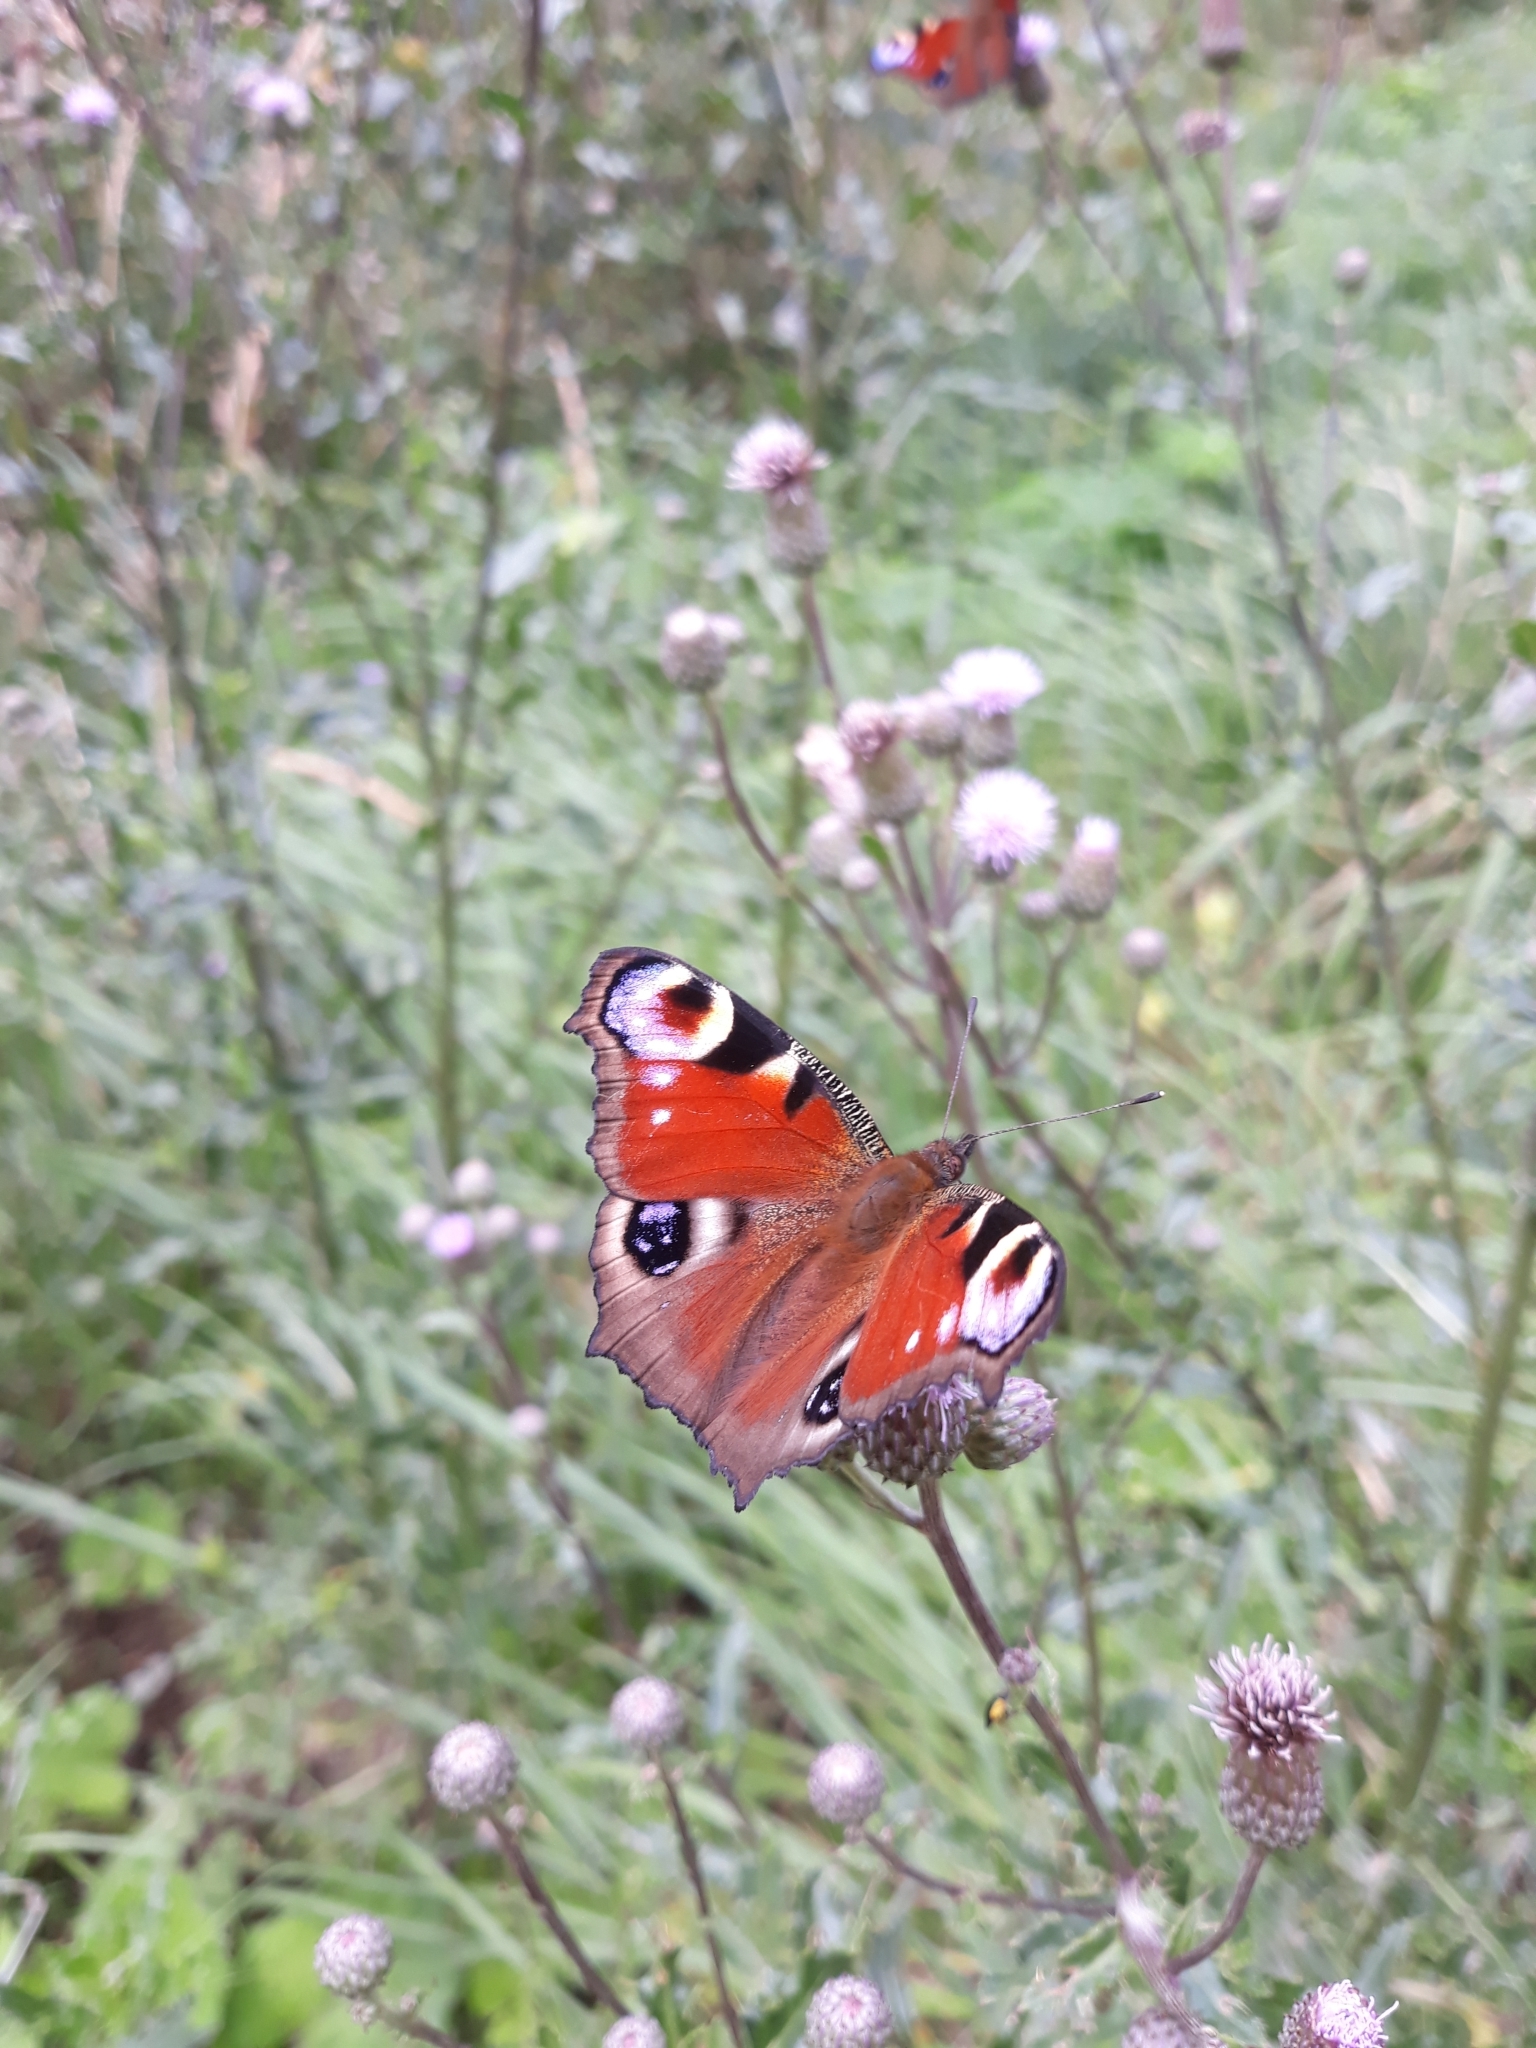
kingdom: Animalia
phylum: Arthropoda
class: Insecta
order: Lepidoptera
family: Nymphalidae
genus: Aglais
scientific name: Aglais io
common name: Peacock
